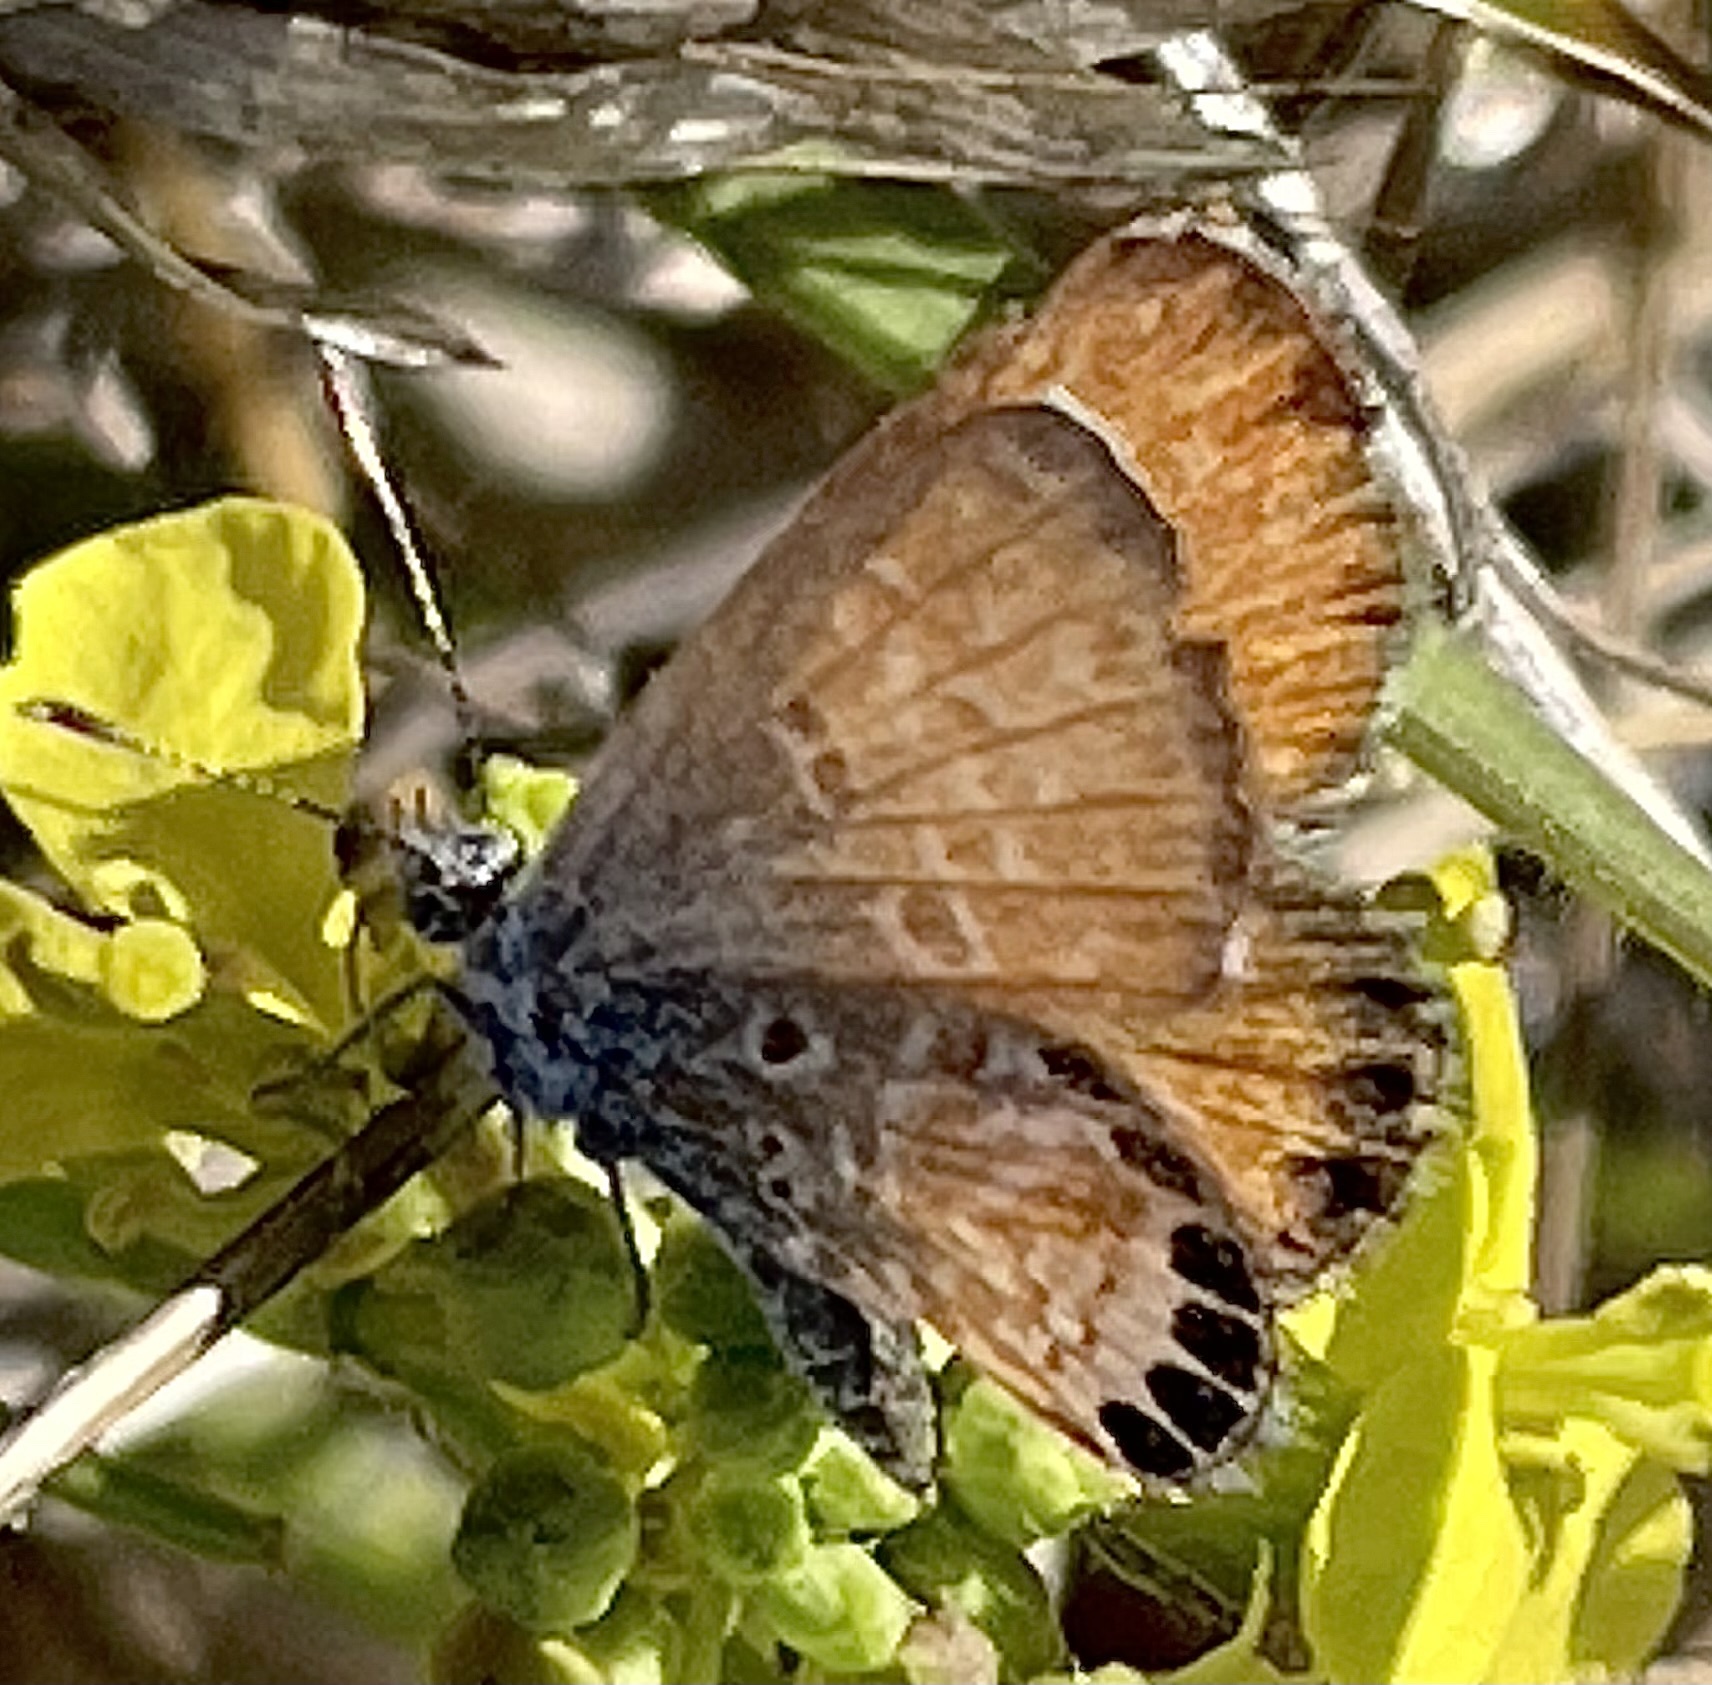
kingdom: Animalia
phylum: Arthropoda
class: Insecta
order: Lepidoptera
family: Lycaenidae
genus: Brephidium
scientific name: Brephidium exilis
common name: Pygmy blue
